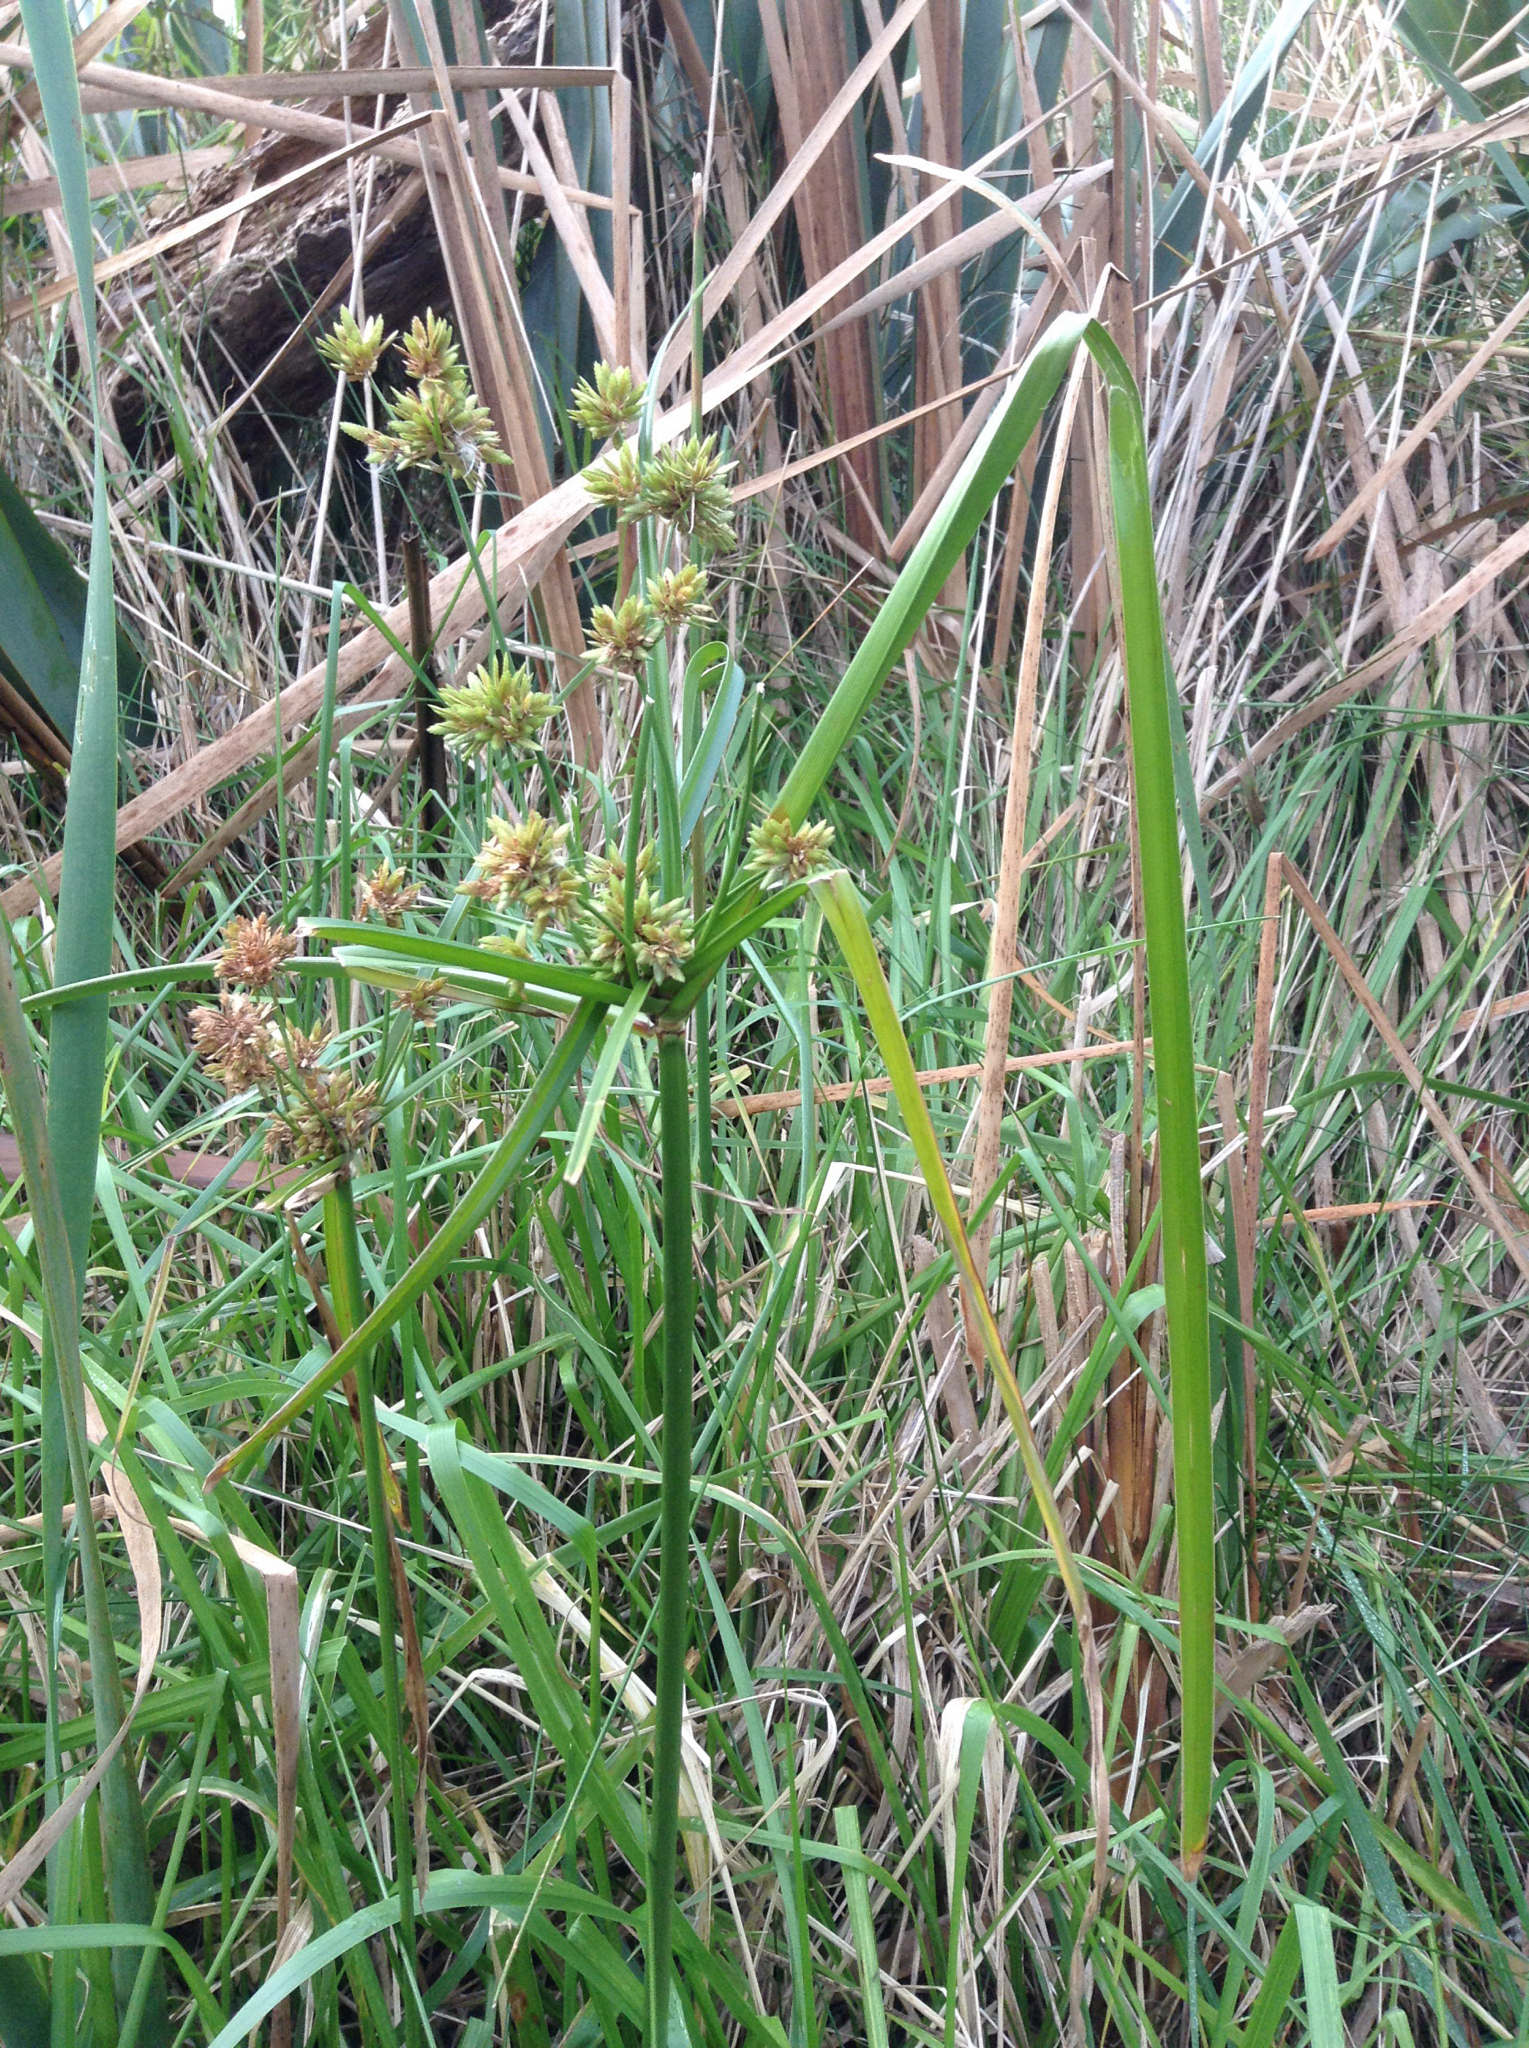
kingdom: Plantae
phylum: Tracheophyta
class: Liliopsida
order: Poales
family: Cyperaceae
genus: Cyperus
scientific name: Cyperus eragrostis
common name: Tall flatsedge
